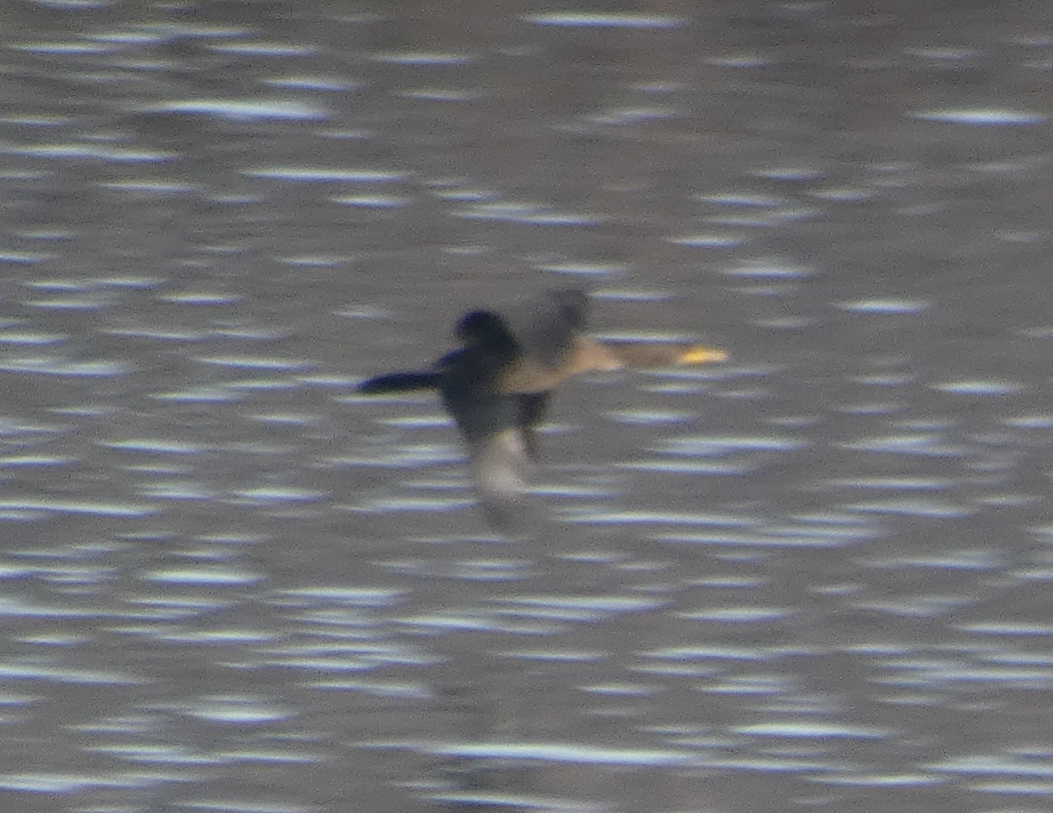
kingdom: Animalia
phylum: Chordata
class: Aves
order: Suliformes
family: Phalacrocoracidae
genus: Phalacrocorax
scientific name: Phalacrocorax auritus
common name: Double-crested cormorant
